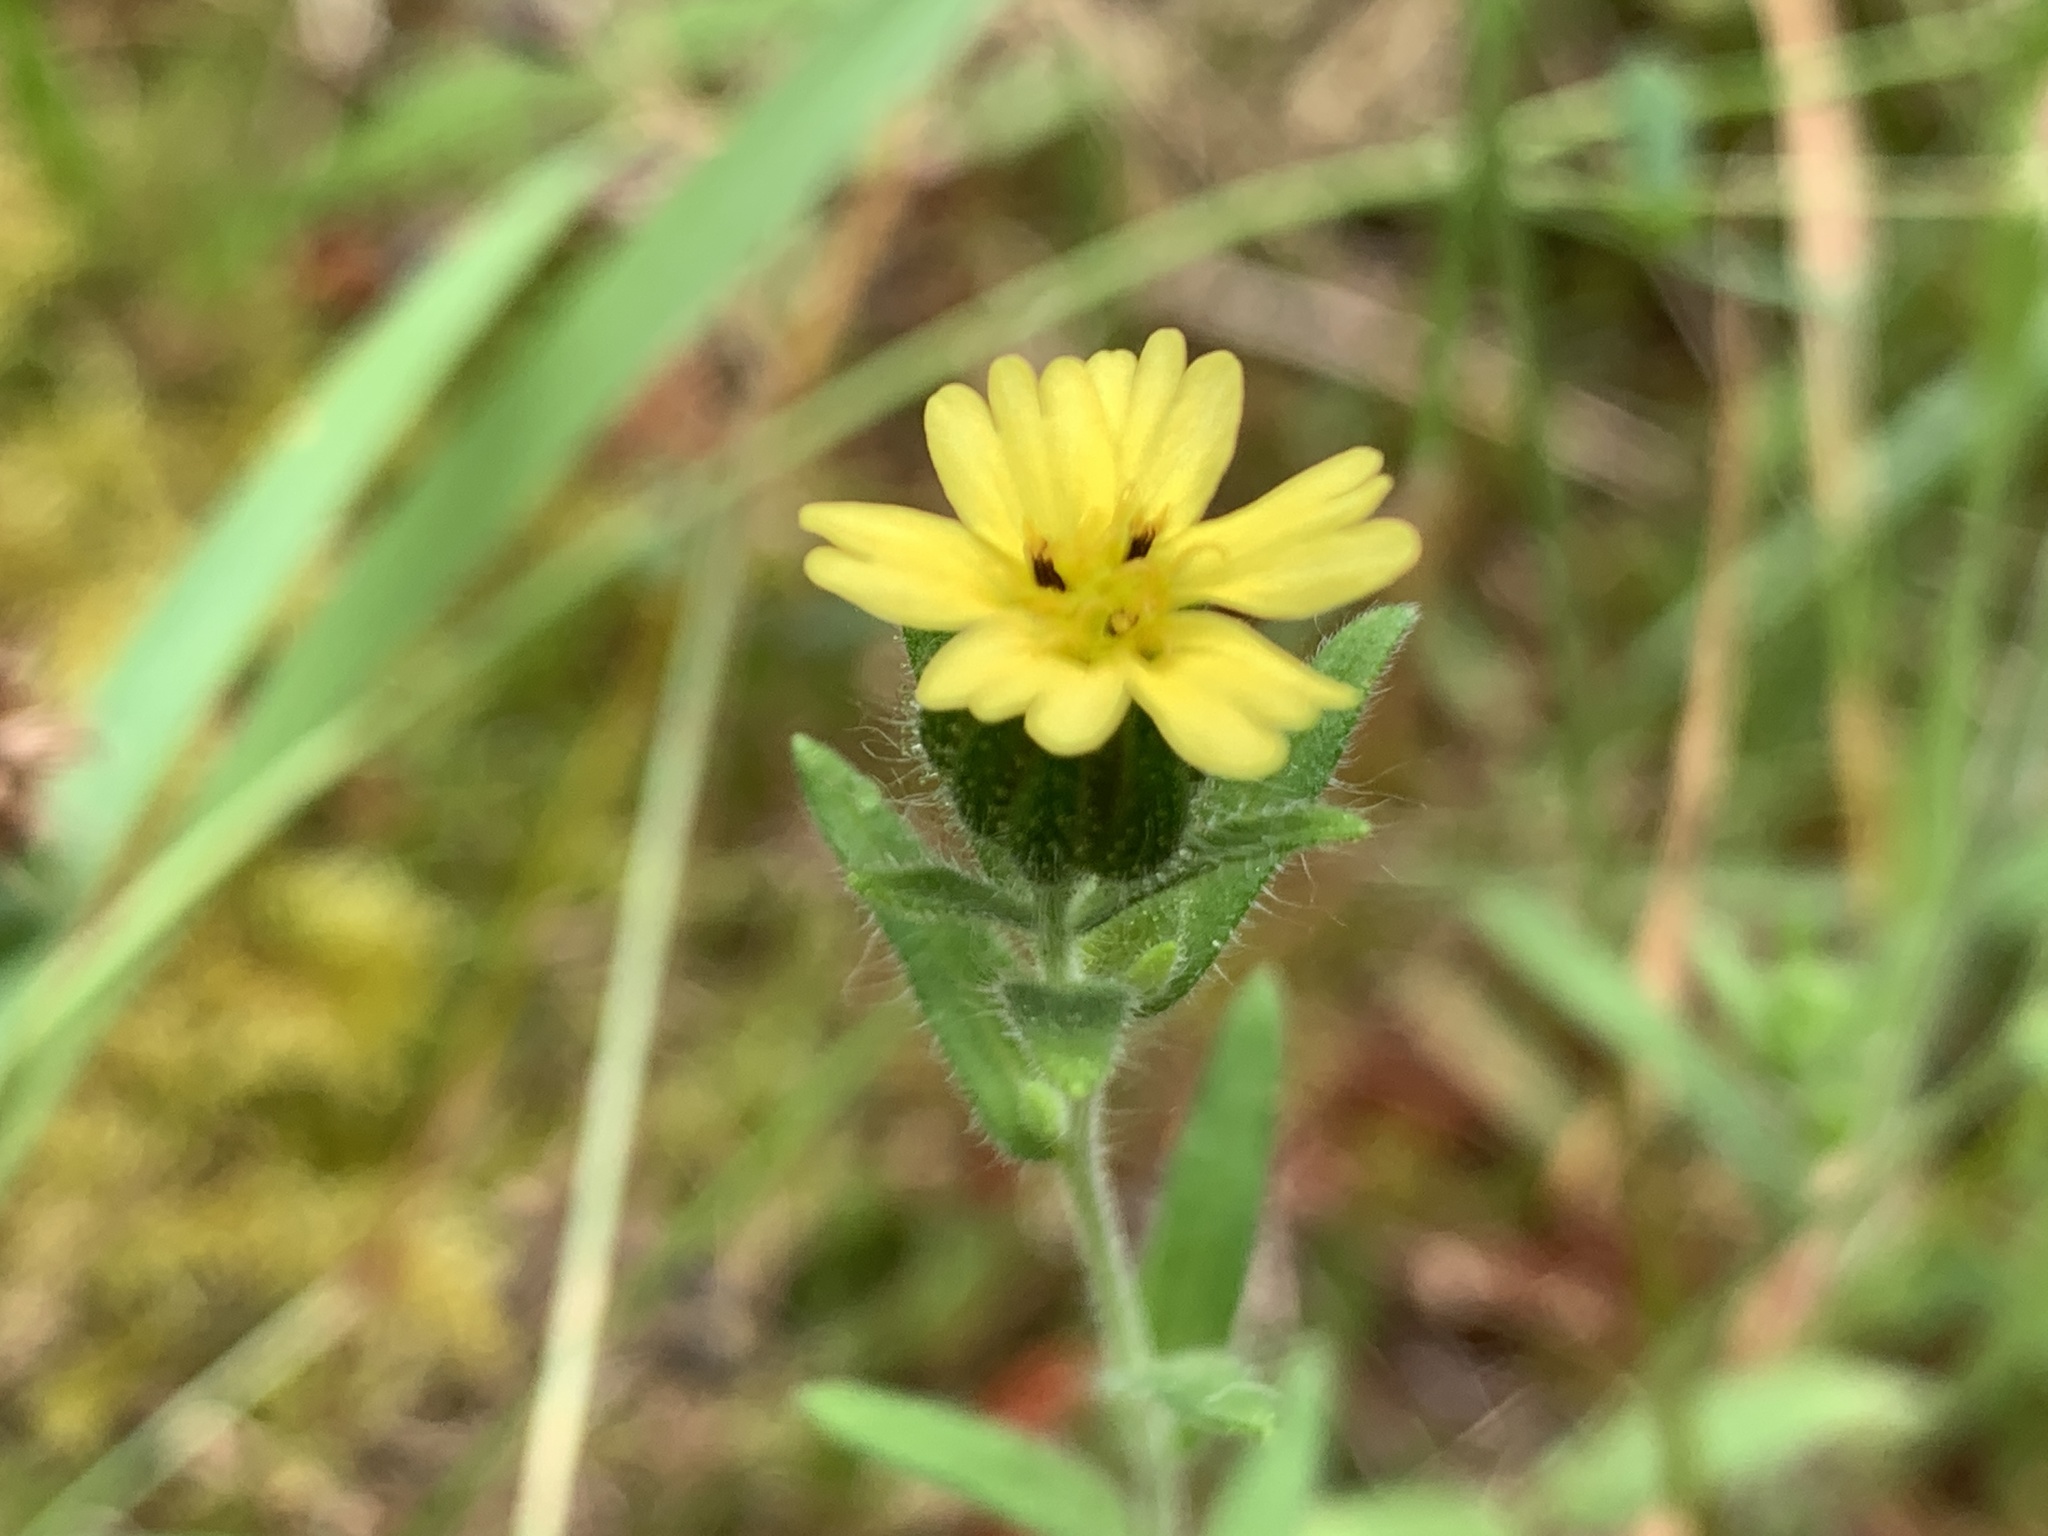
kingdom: Plantae
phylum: Tracheophyta
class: Magnoliopsida
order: Asterales
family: Asteraceae
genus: Madia
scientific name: Madia gracilis
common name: Grassy tarweed
